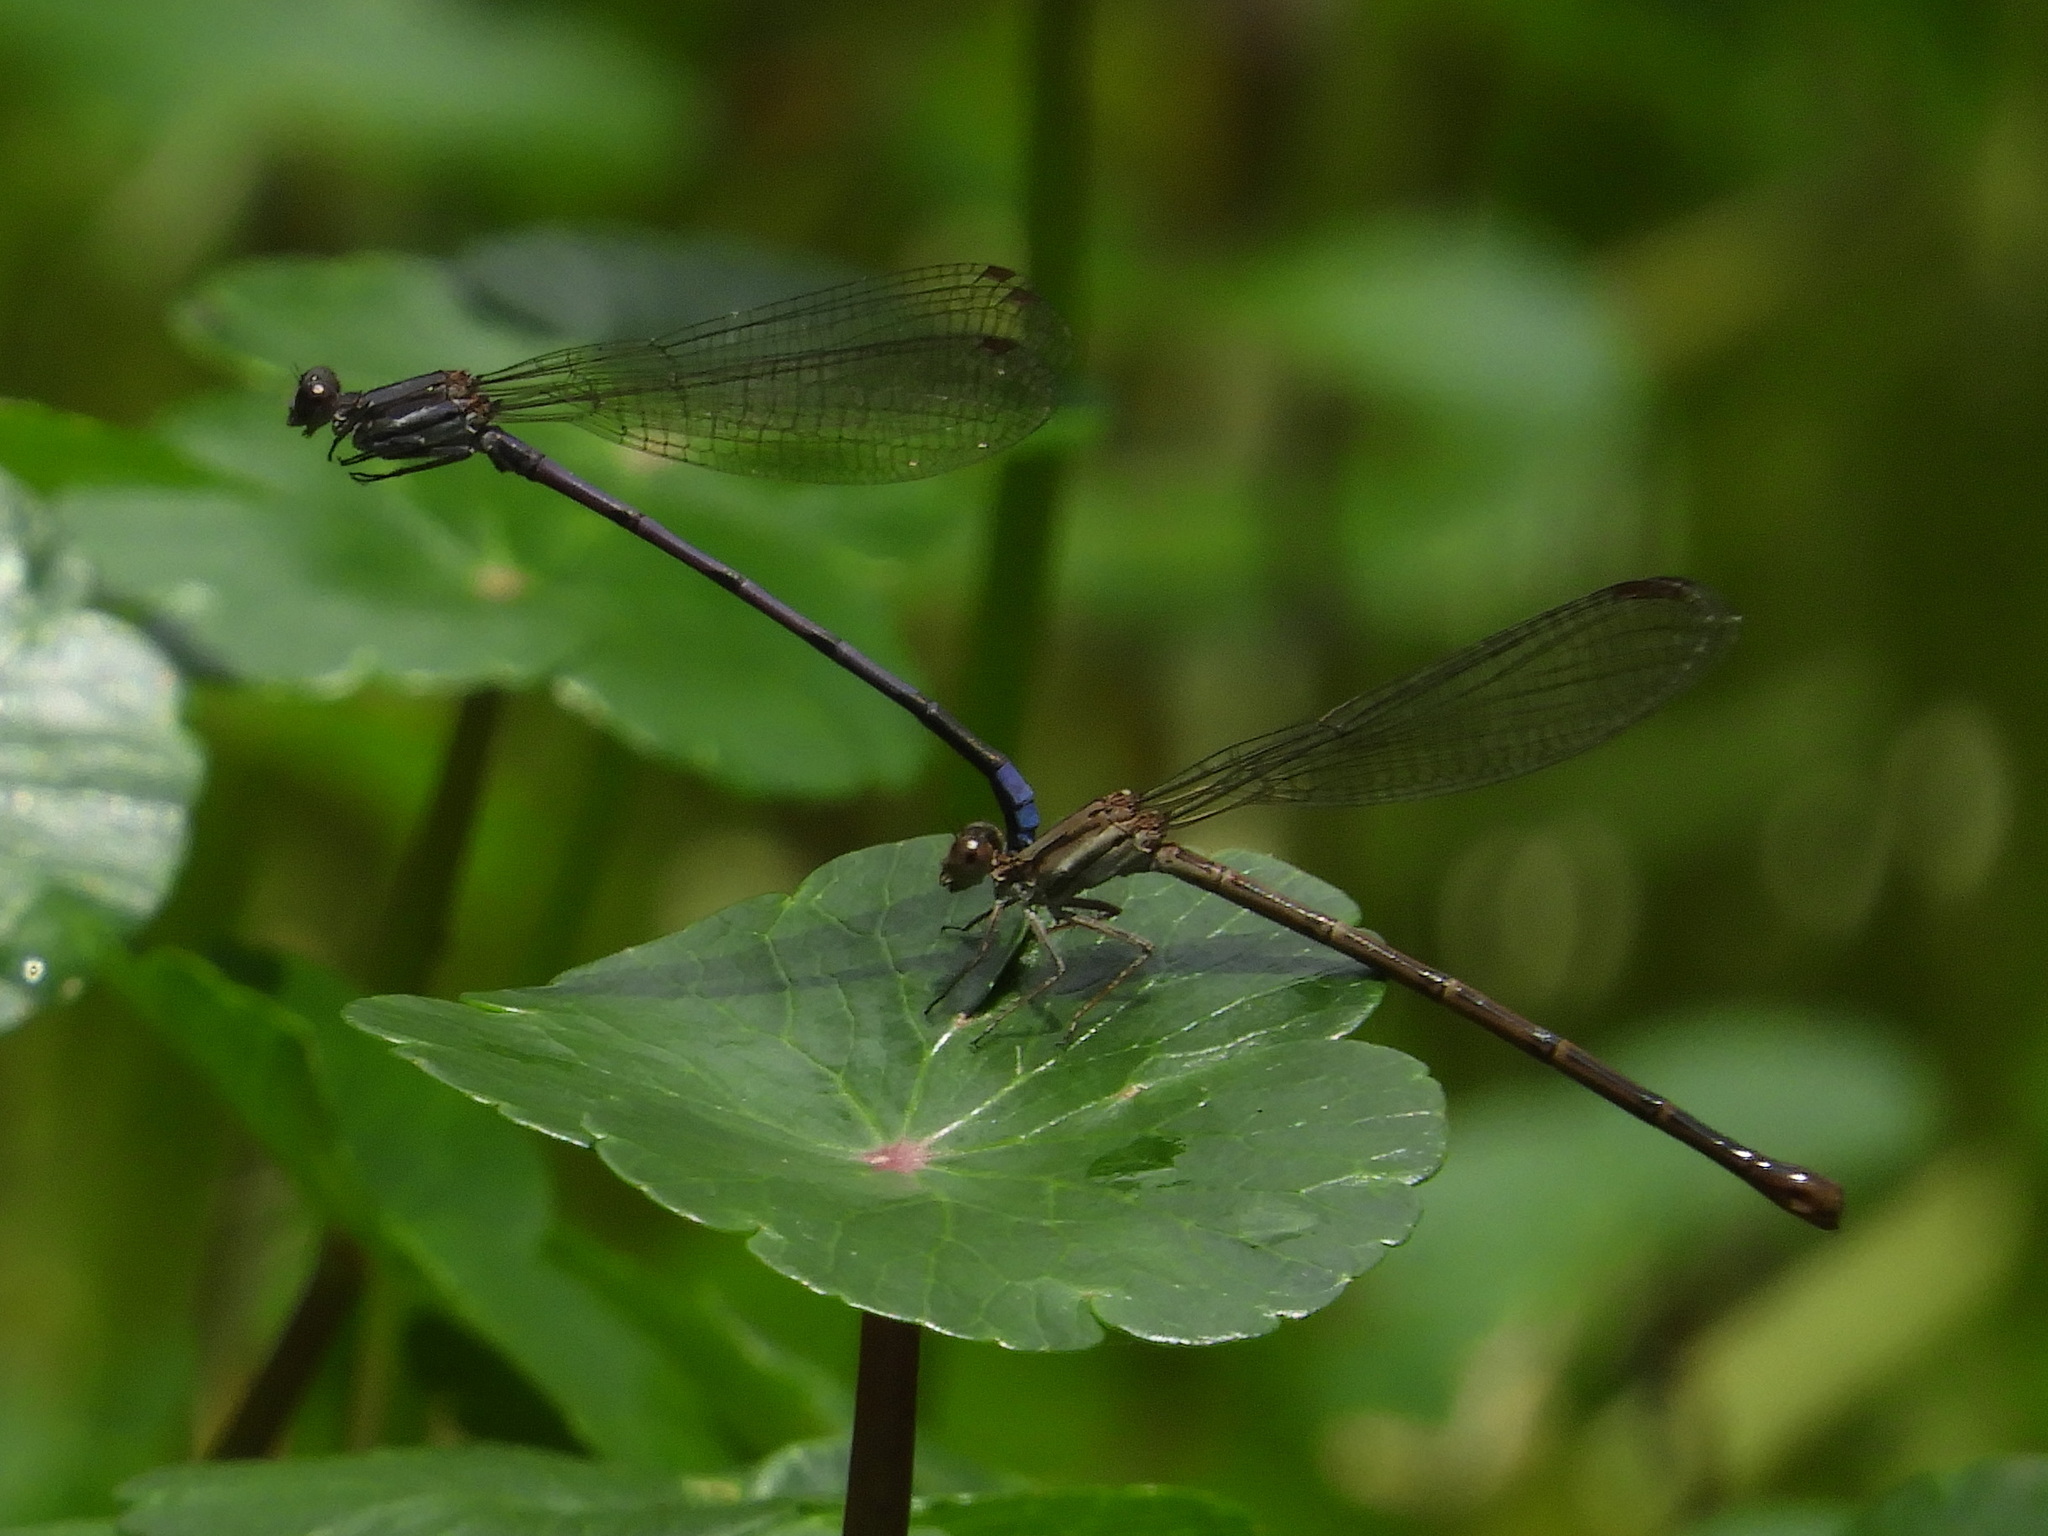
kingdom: Animalia
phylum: Arthropoda
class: Insecta
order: Odonata
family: Coenagrionidae
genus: Argia
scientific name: Argia fumipennis
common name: Variable dancer
